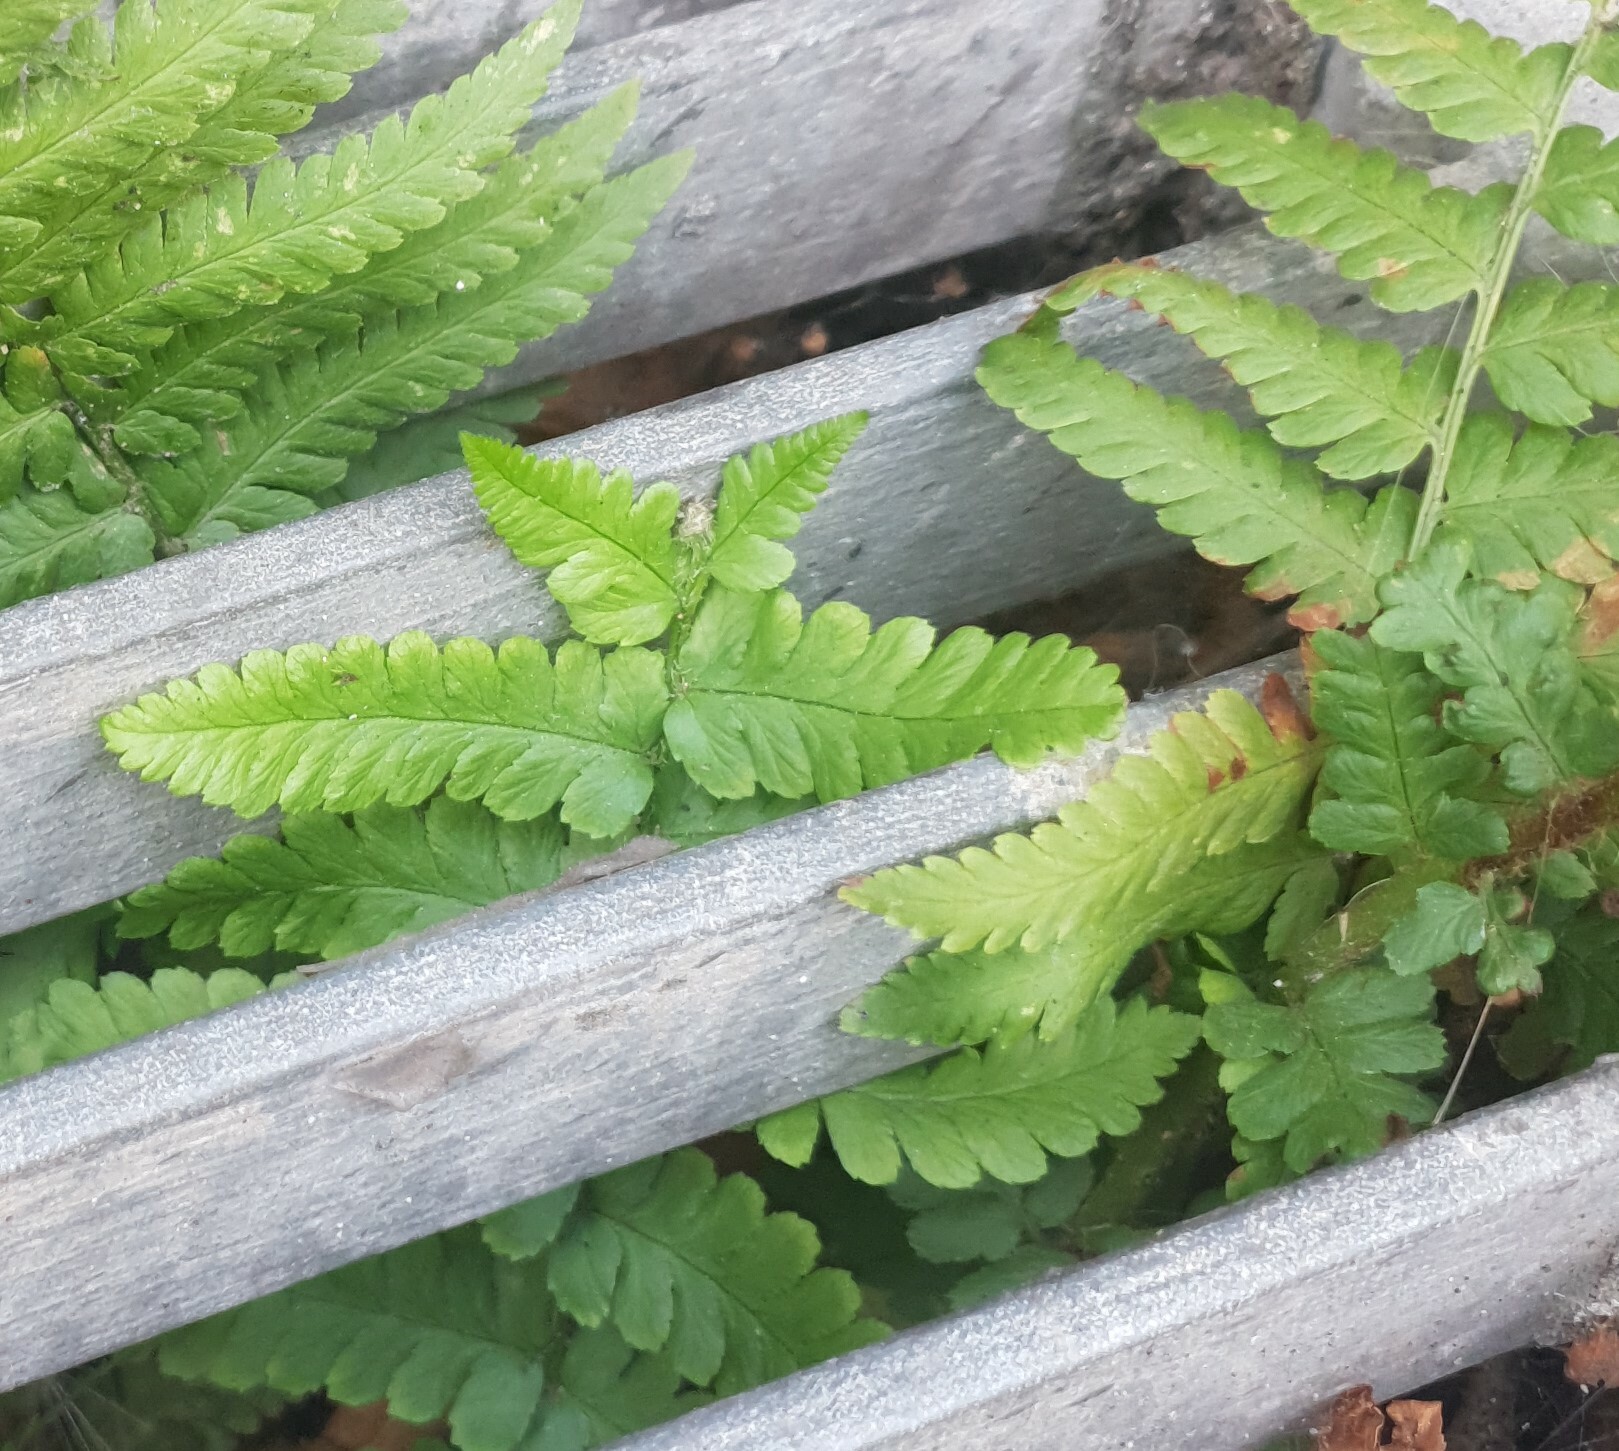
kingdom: Plantae
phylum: Tracheophyta
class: Polypodiopsida
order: Polypodiales
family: Dryopteridaceae
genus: Dryopteris
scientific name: Dryopteris filix-mas
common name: Male fern
